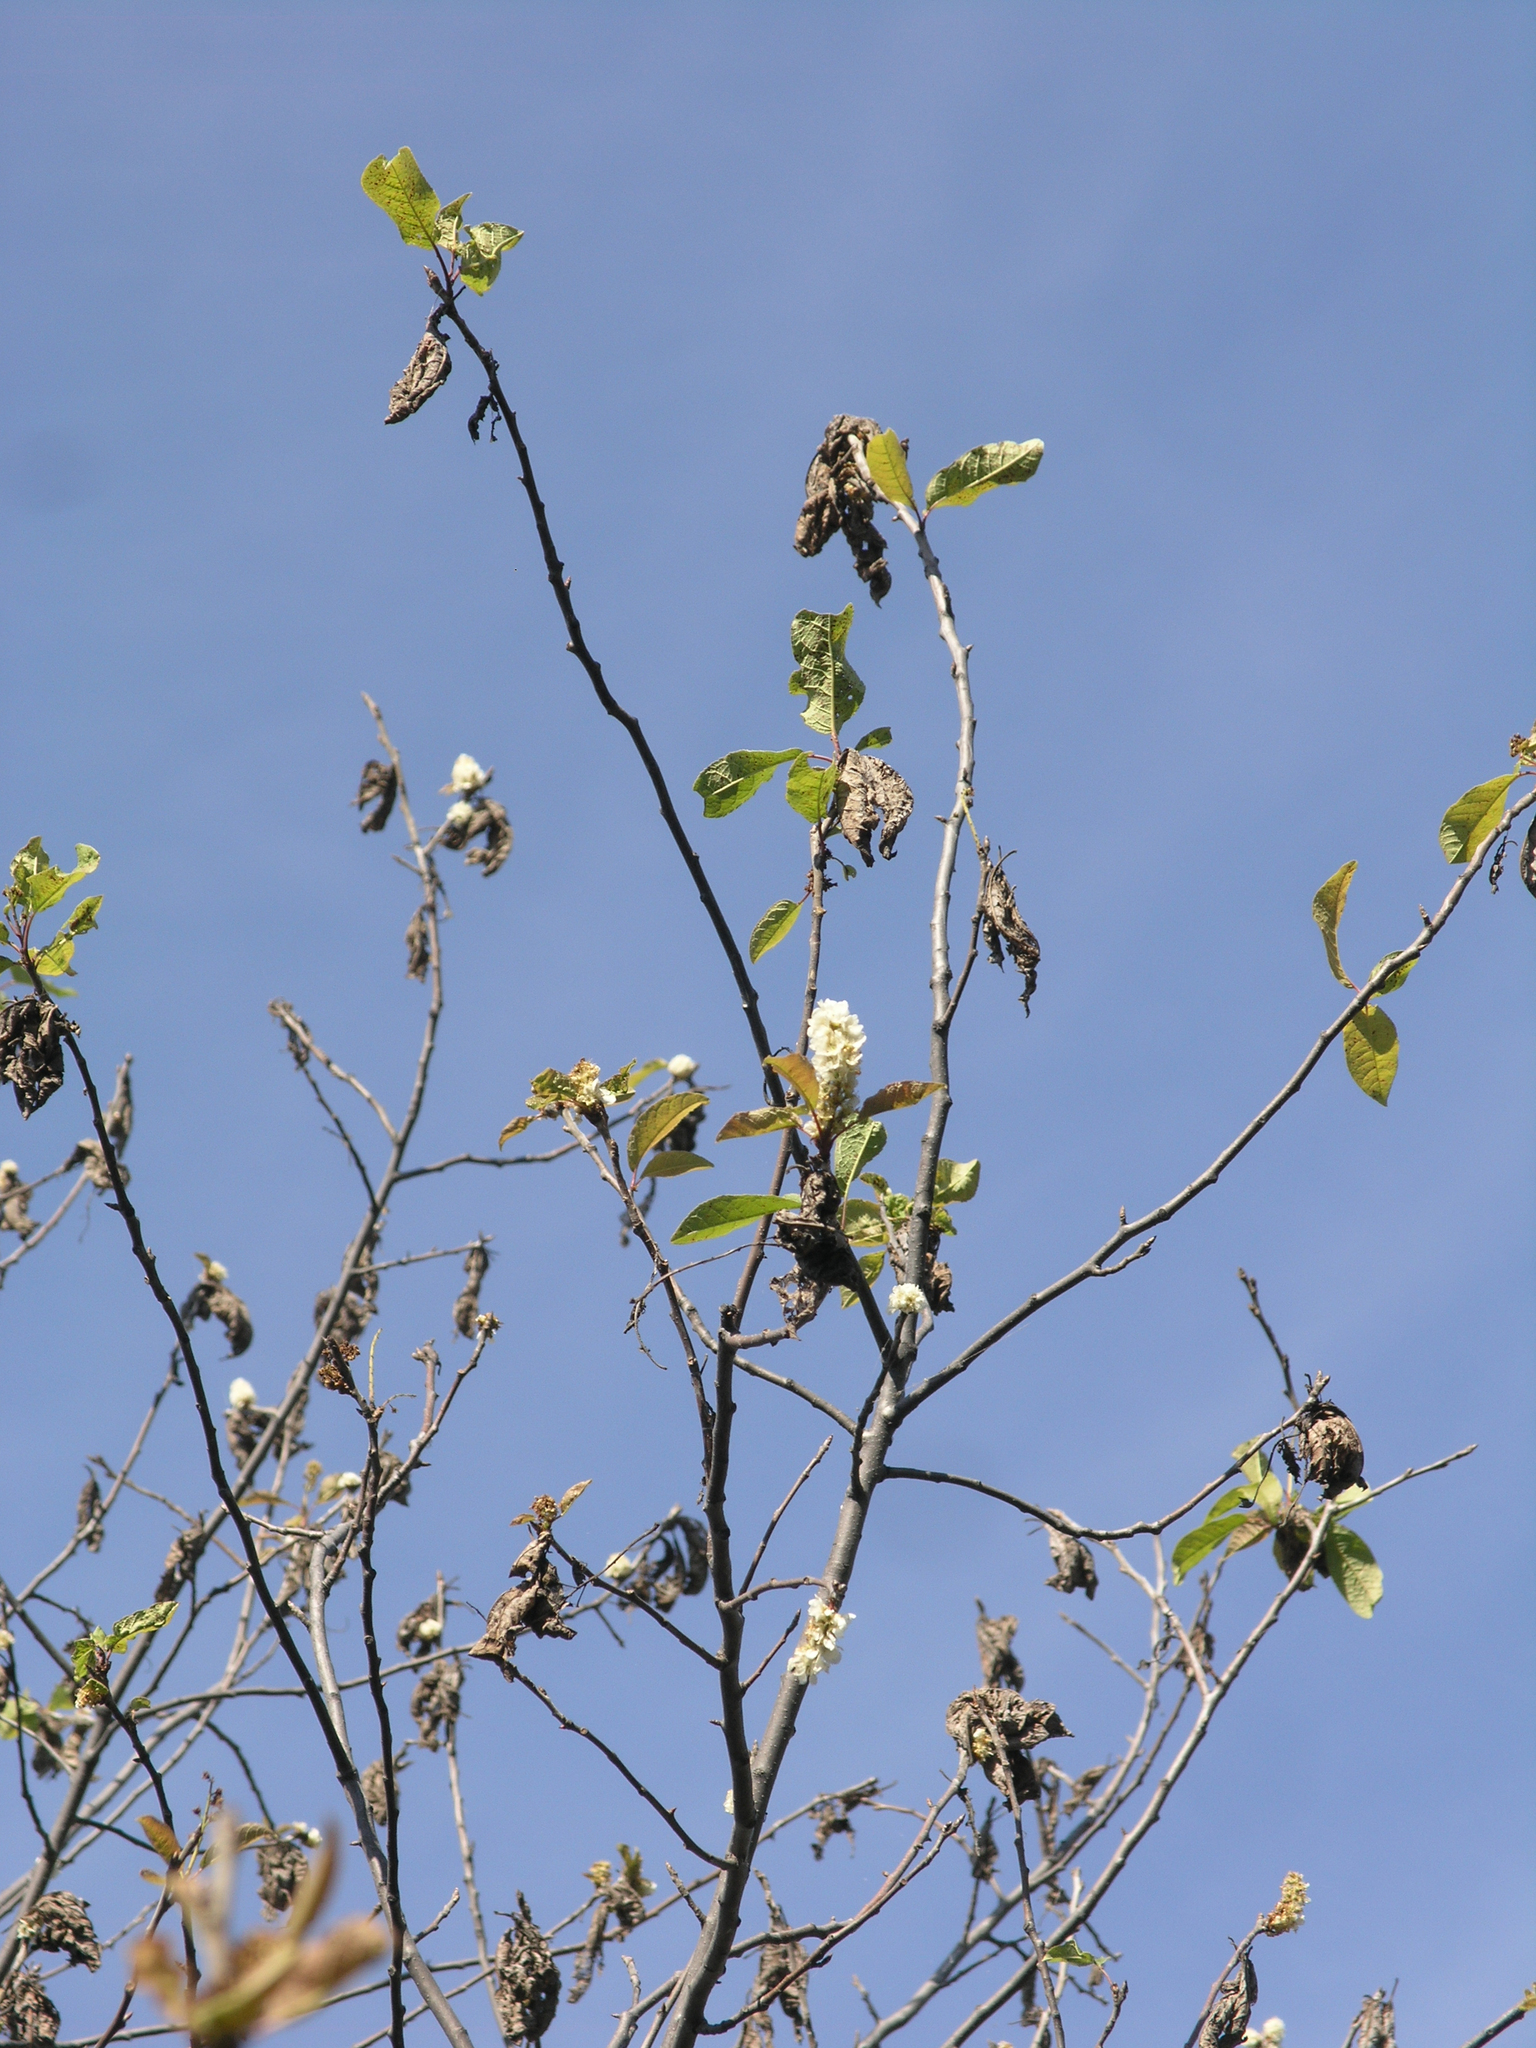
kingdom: Animalia
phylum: Arthropoda
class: Insecta
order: Lepidoptera
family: Pieridae
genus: Aporia
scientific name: Aporia crataegi
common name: Black-veined white
